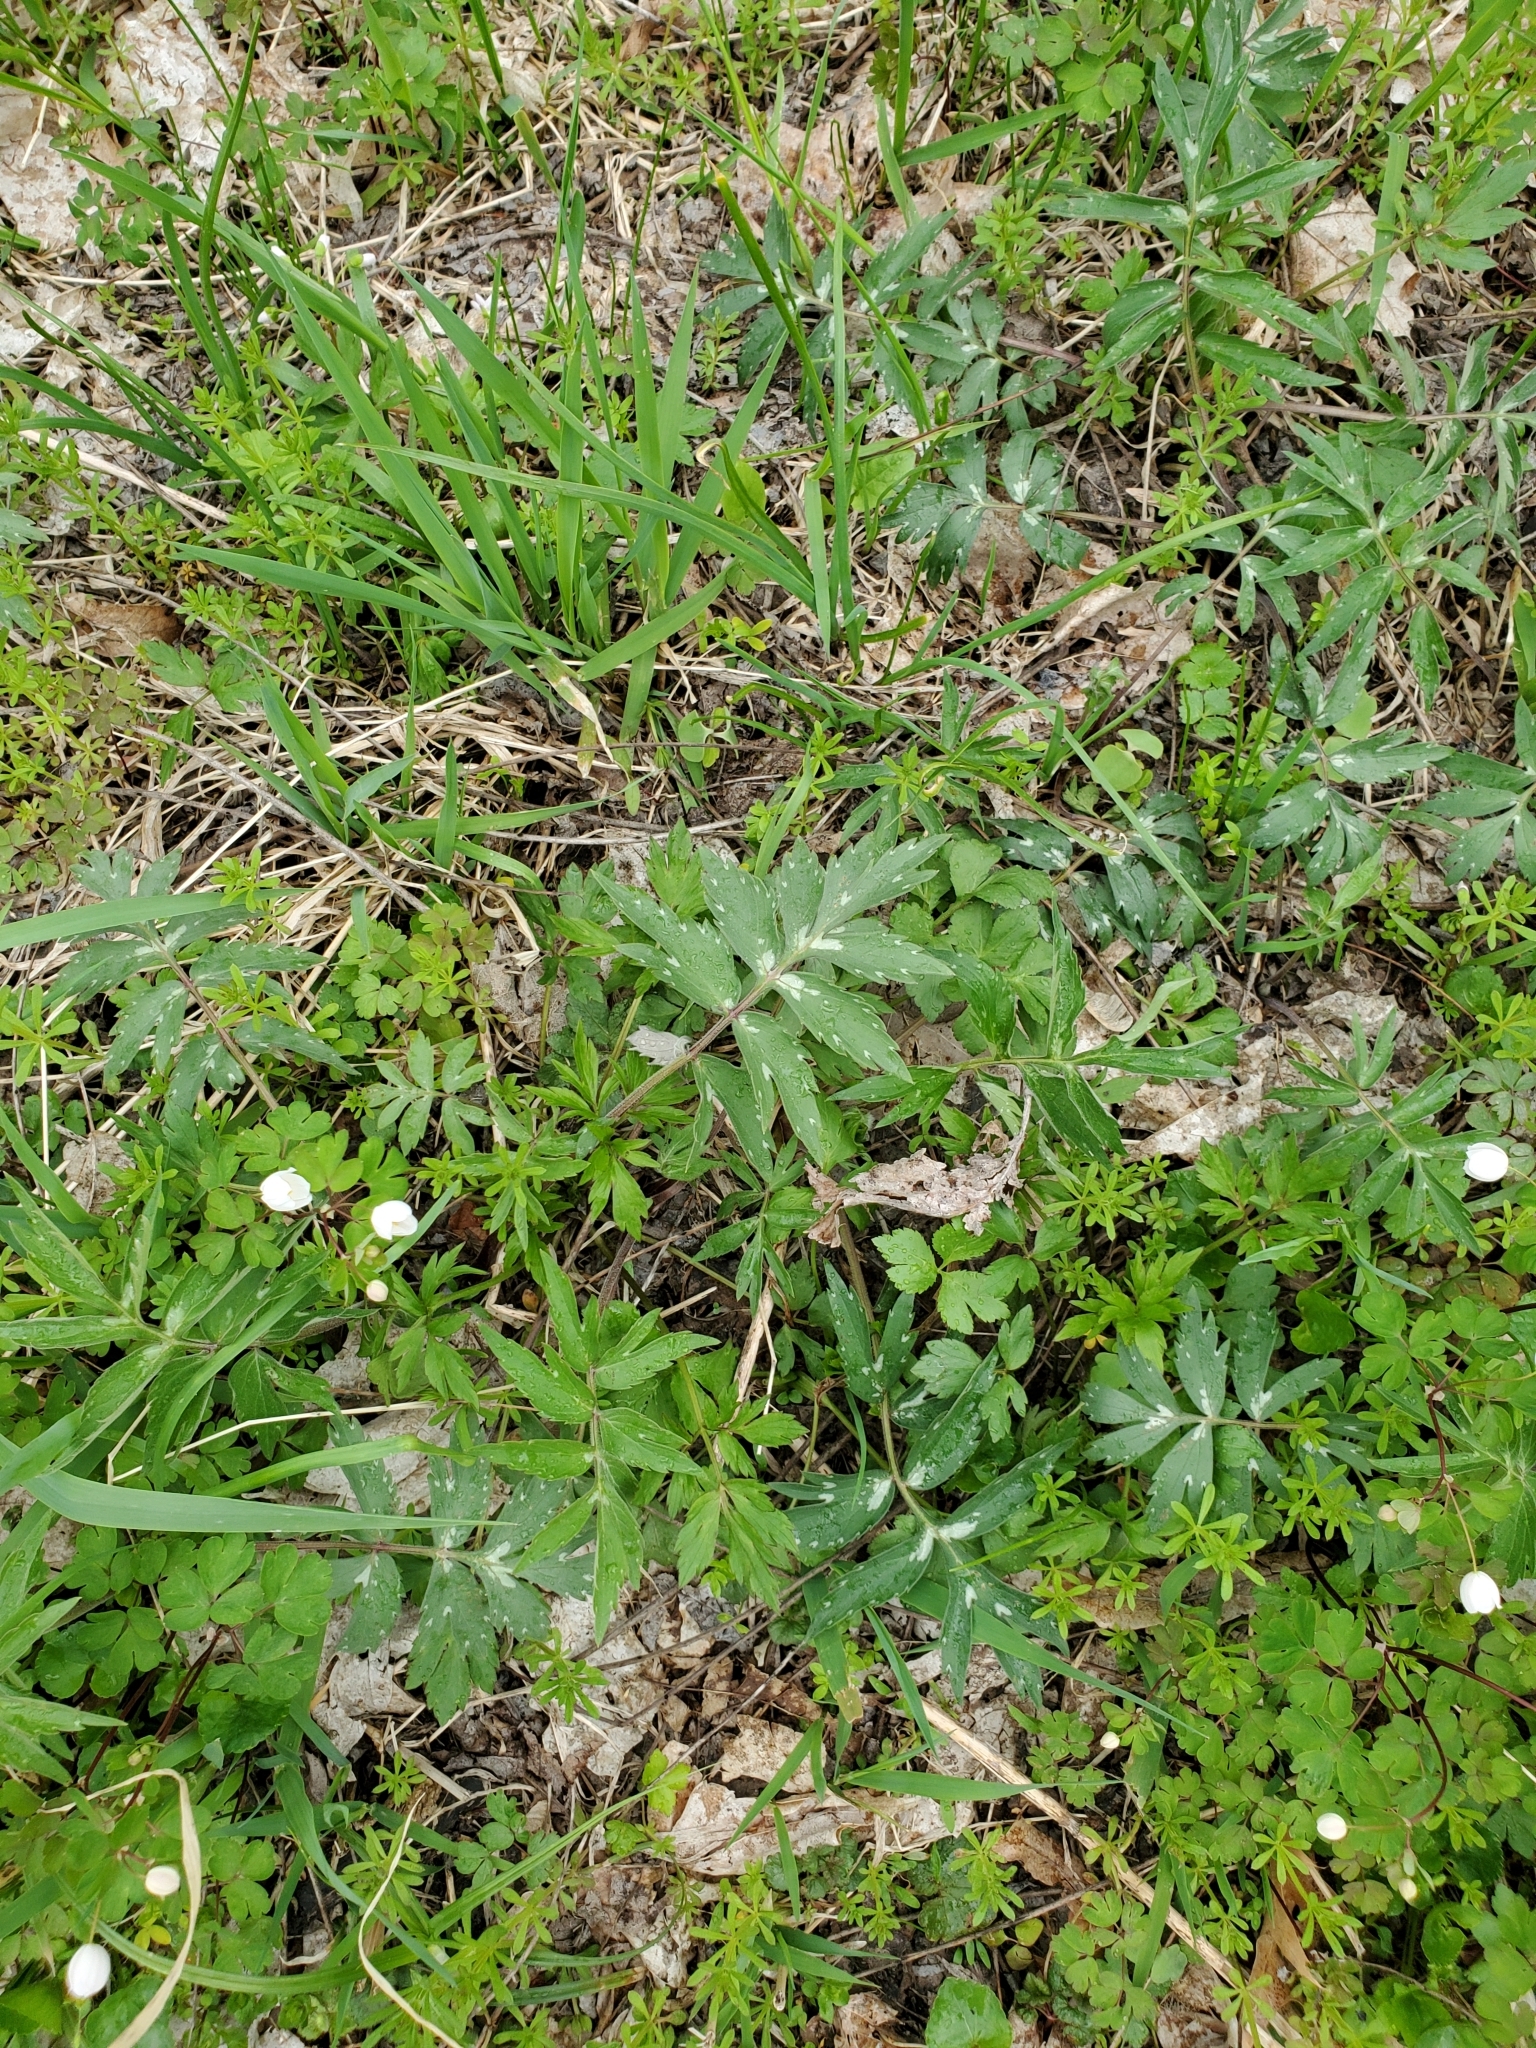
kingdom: Plantae
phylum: Tracheophyta
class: Magnoliopsida
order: Boraginales
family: Hydrophyllaceae
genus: Hydrophyllum
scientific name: Hydrophyllum virginianum
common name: Virginia waterleaf
